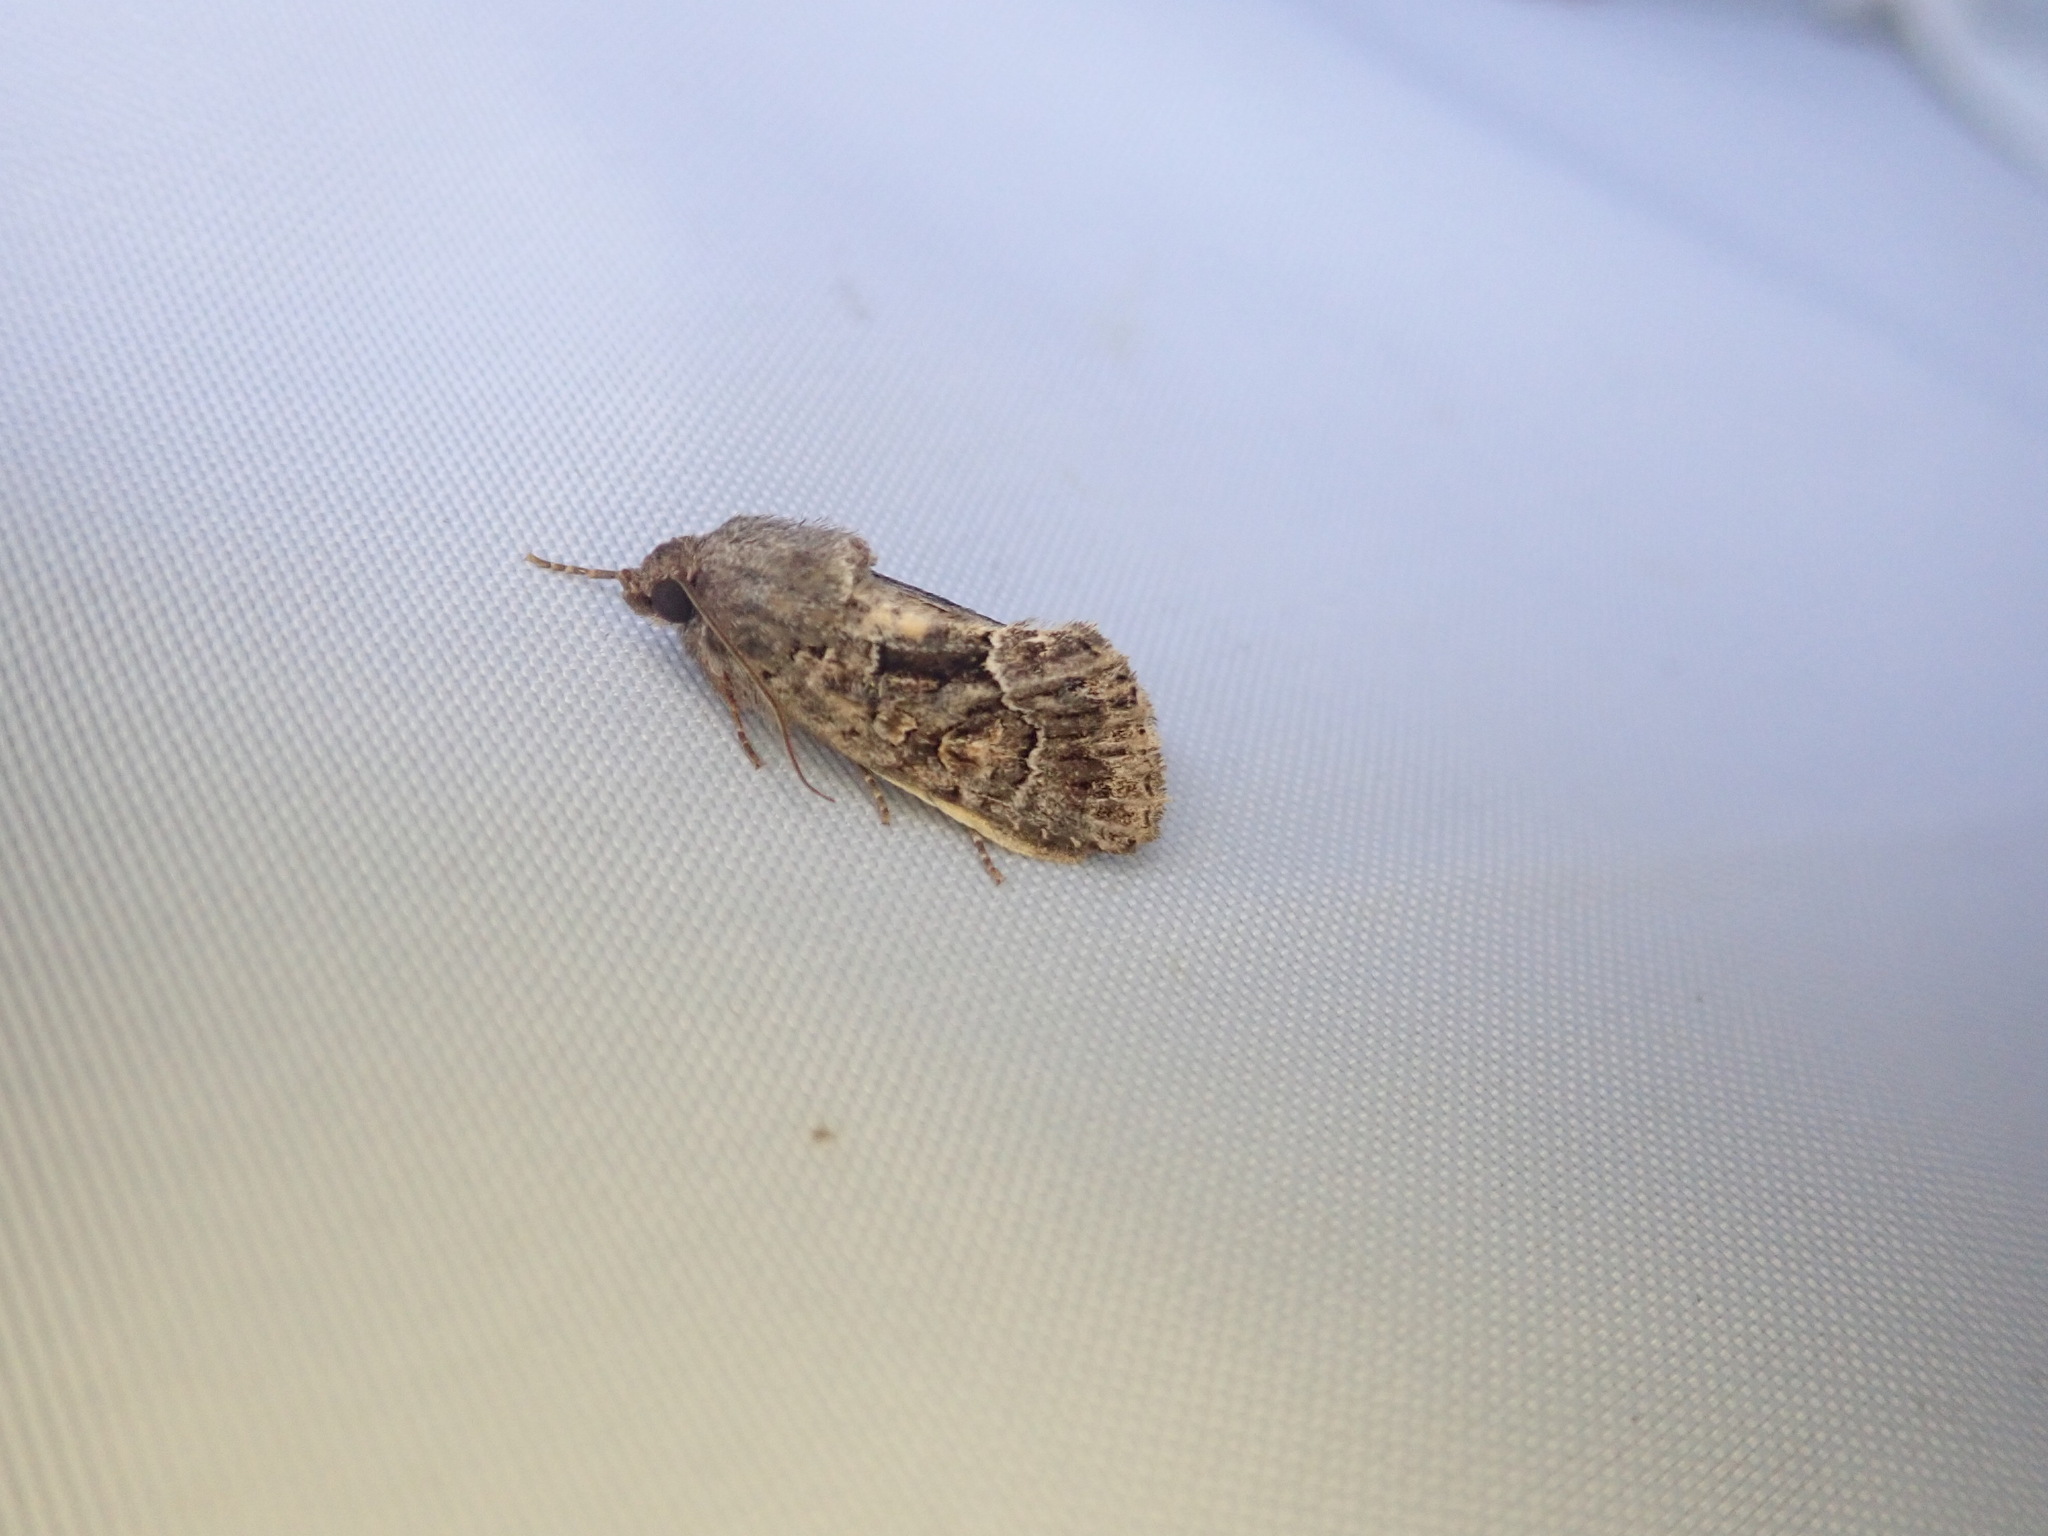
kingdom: Animalia
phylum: Arthropoda
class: Insecta
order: Lepidoptera
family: Noctuidae
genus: Thalpophila
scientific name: Thalpophila matura
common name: Straw underwing
